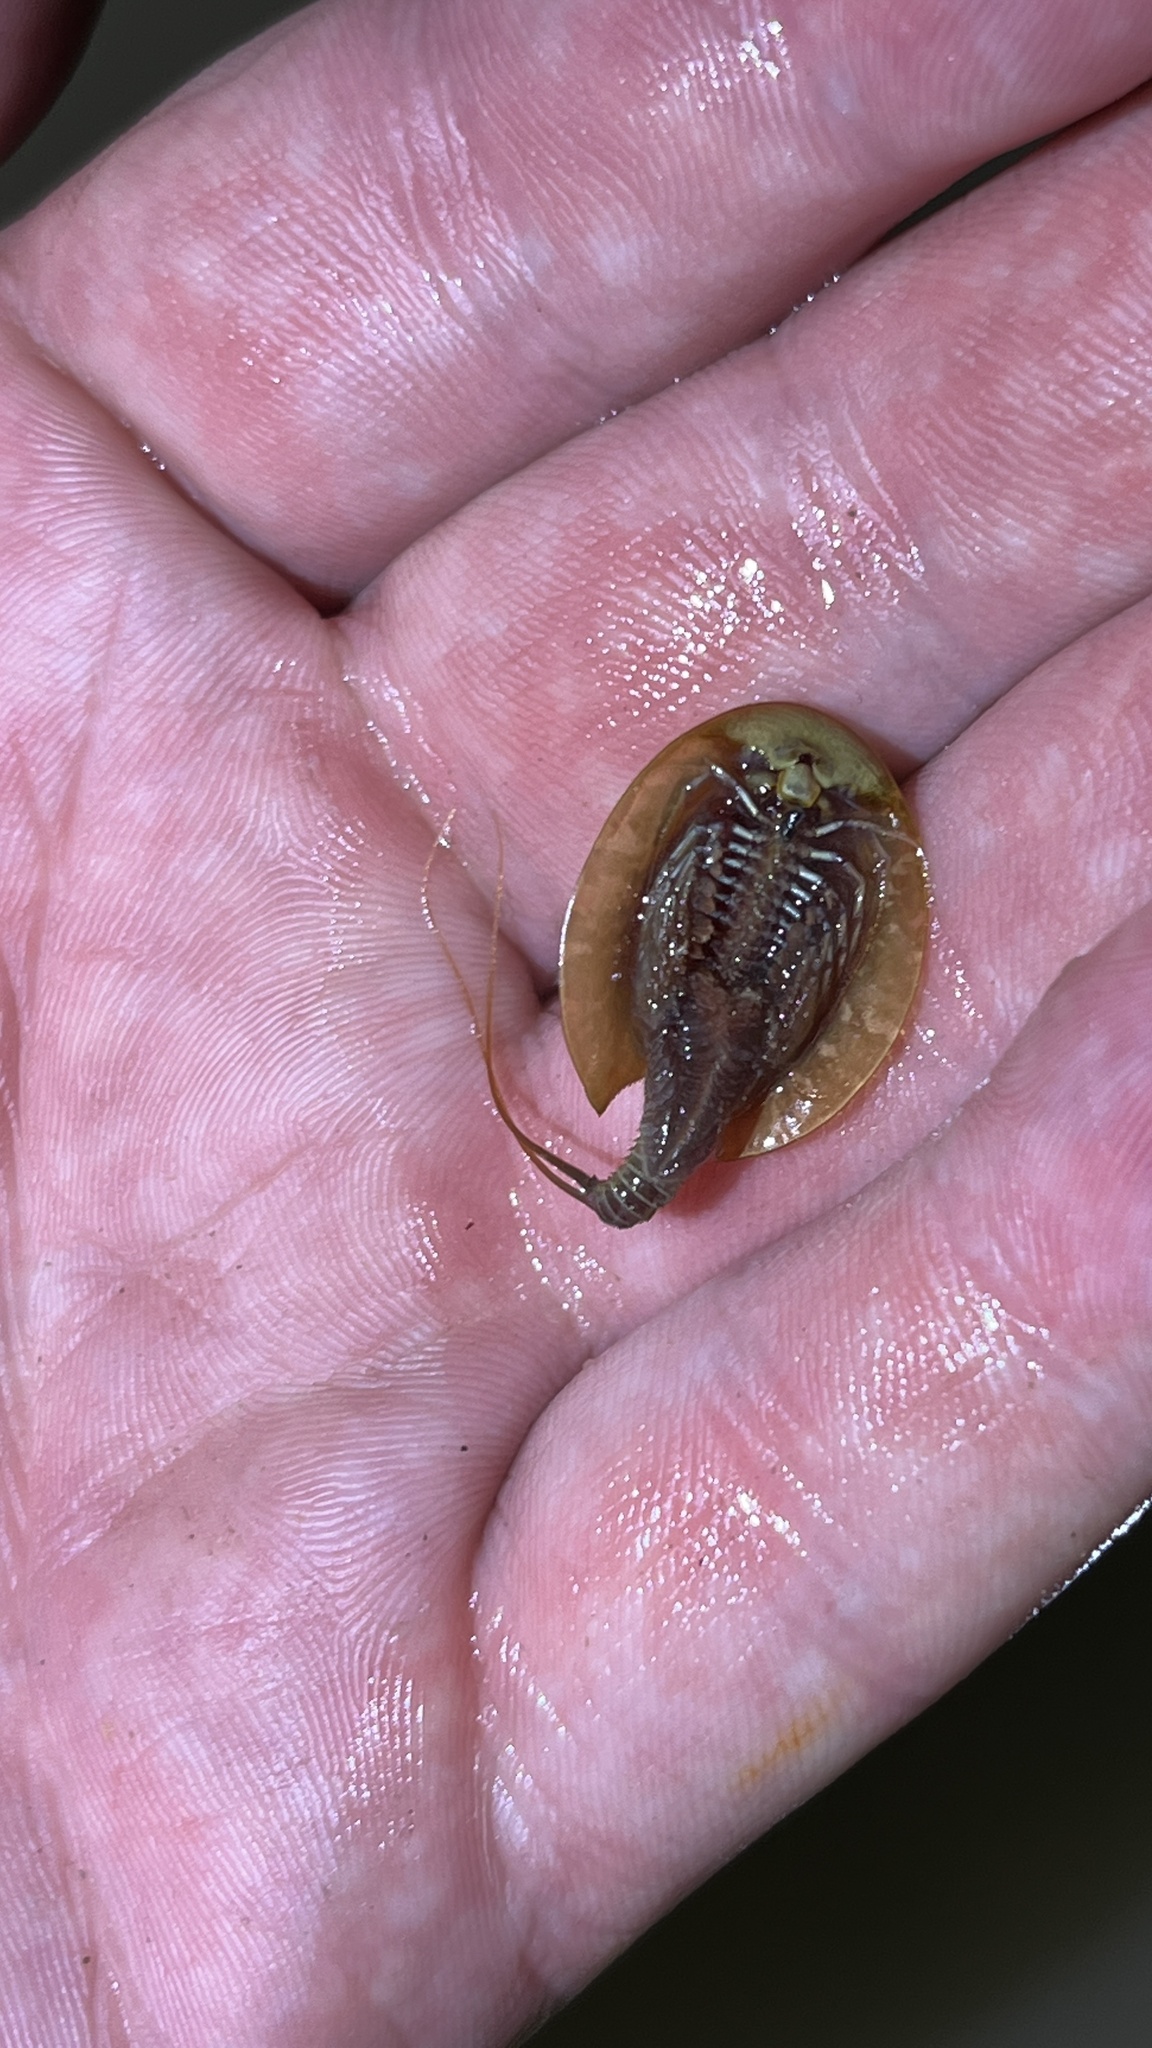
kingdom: Animalia
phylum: Arthropoda
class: Branchiopoda
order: Notostraca
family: Triopsidae
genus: Triops
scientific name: Triops cancriformis
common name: Tadpole shrimp
